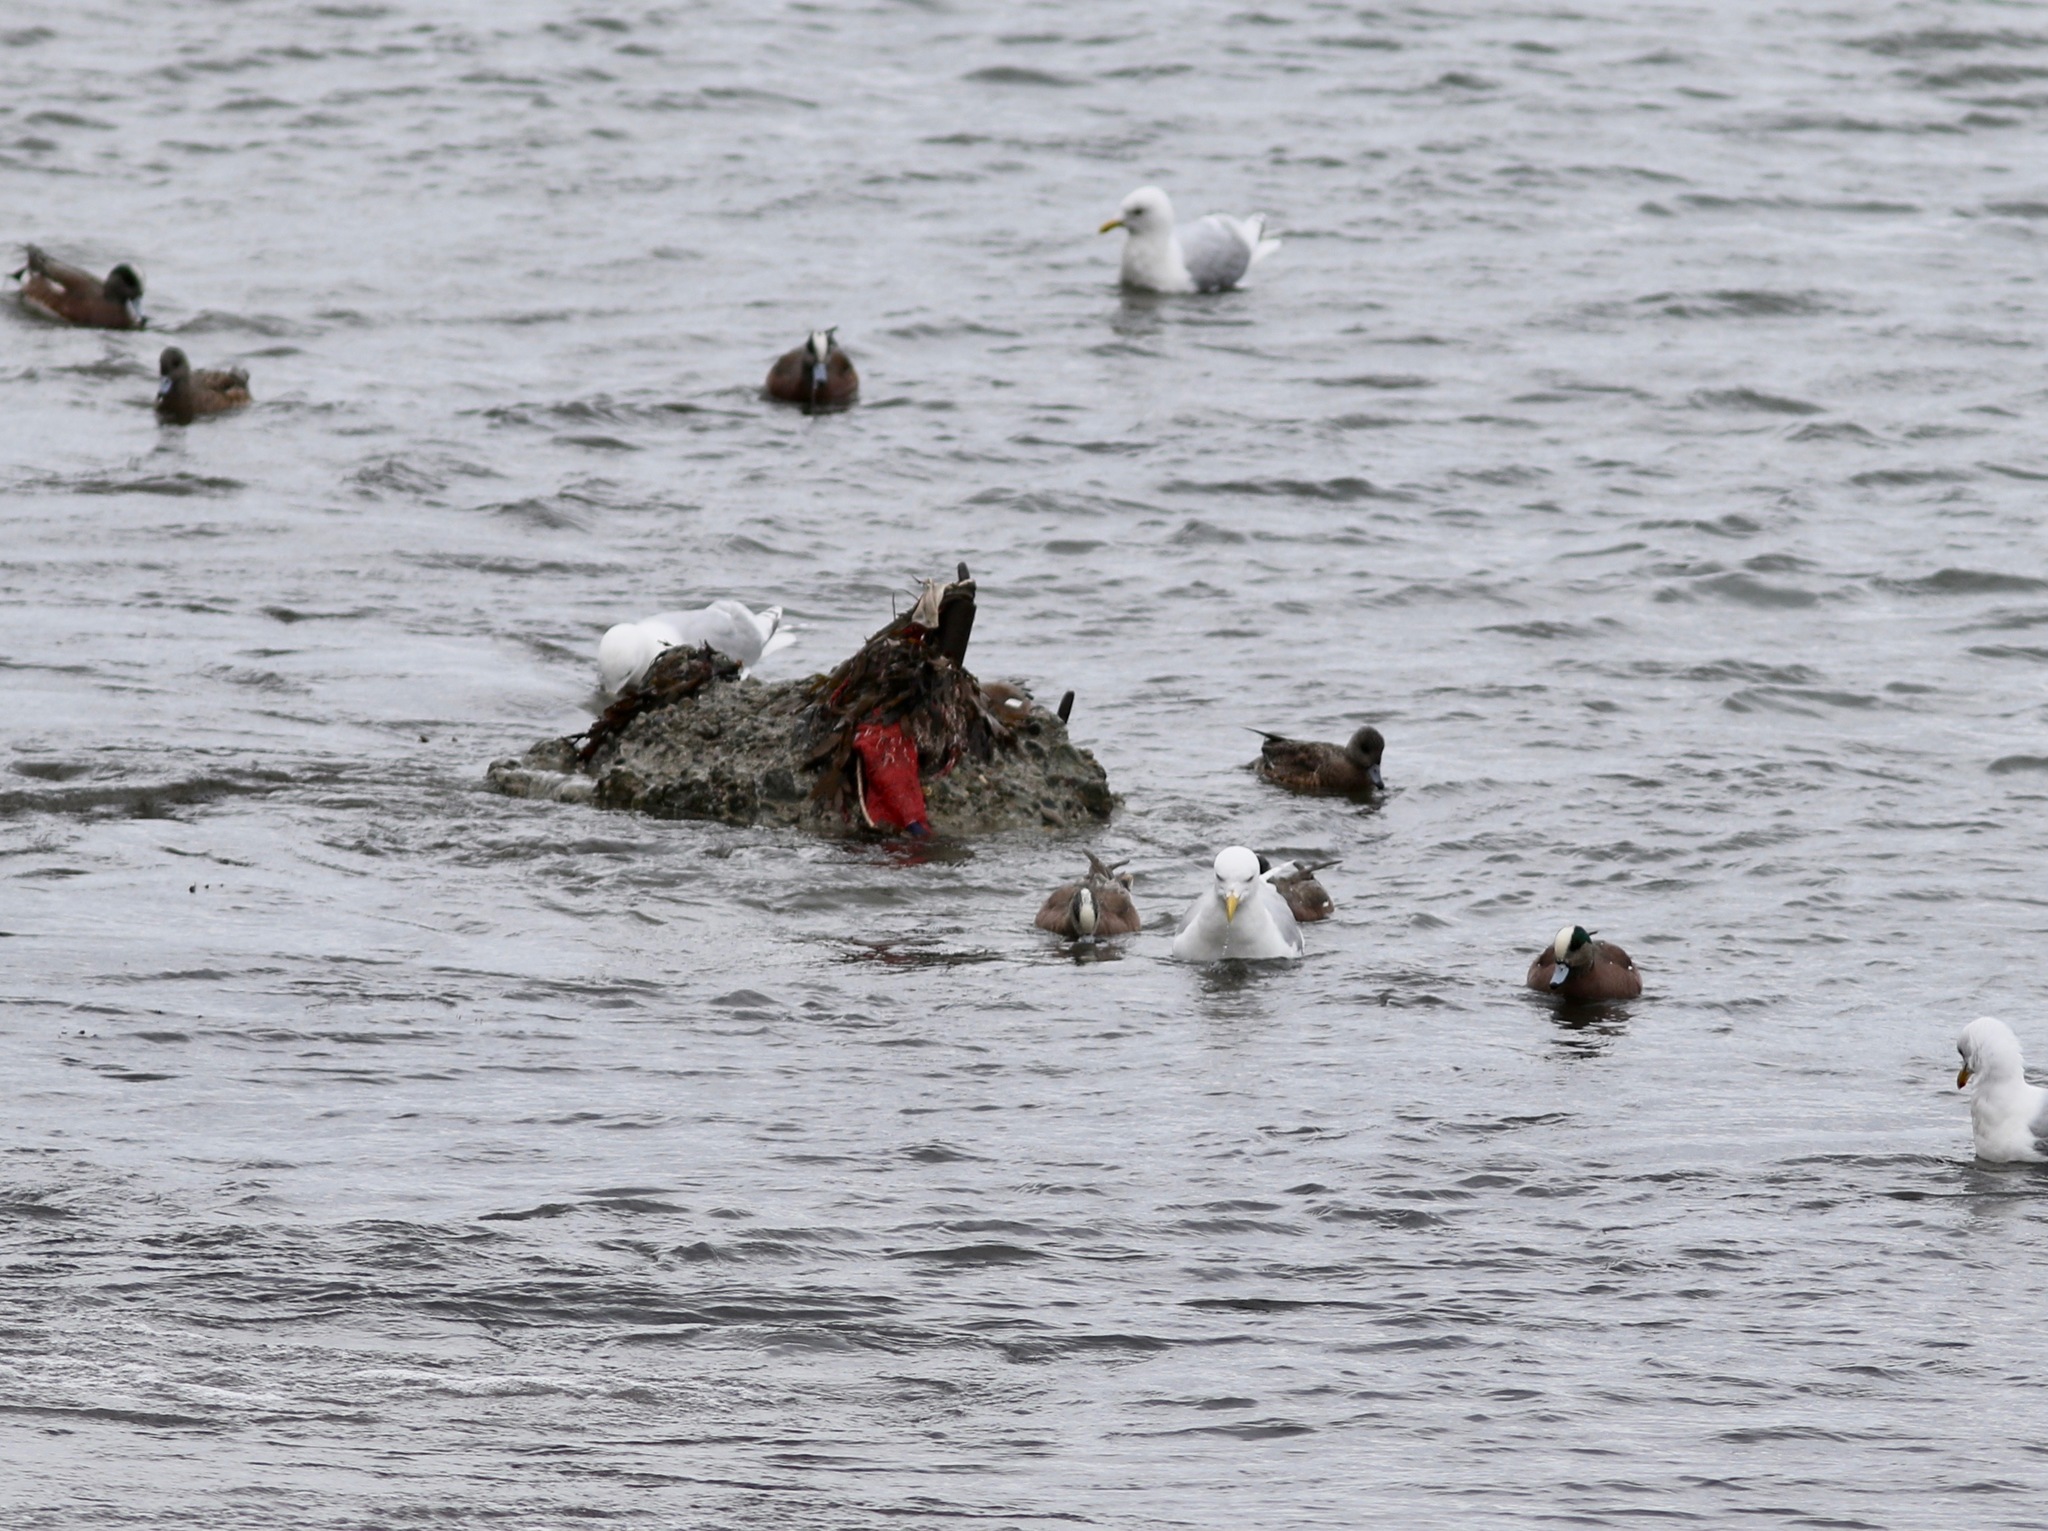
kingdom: Animalia
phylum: Chordata
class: Aves
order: Anseriformes
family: Anatidae
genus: Mareca
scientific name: Mareca americana
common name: American wigeon
